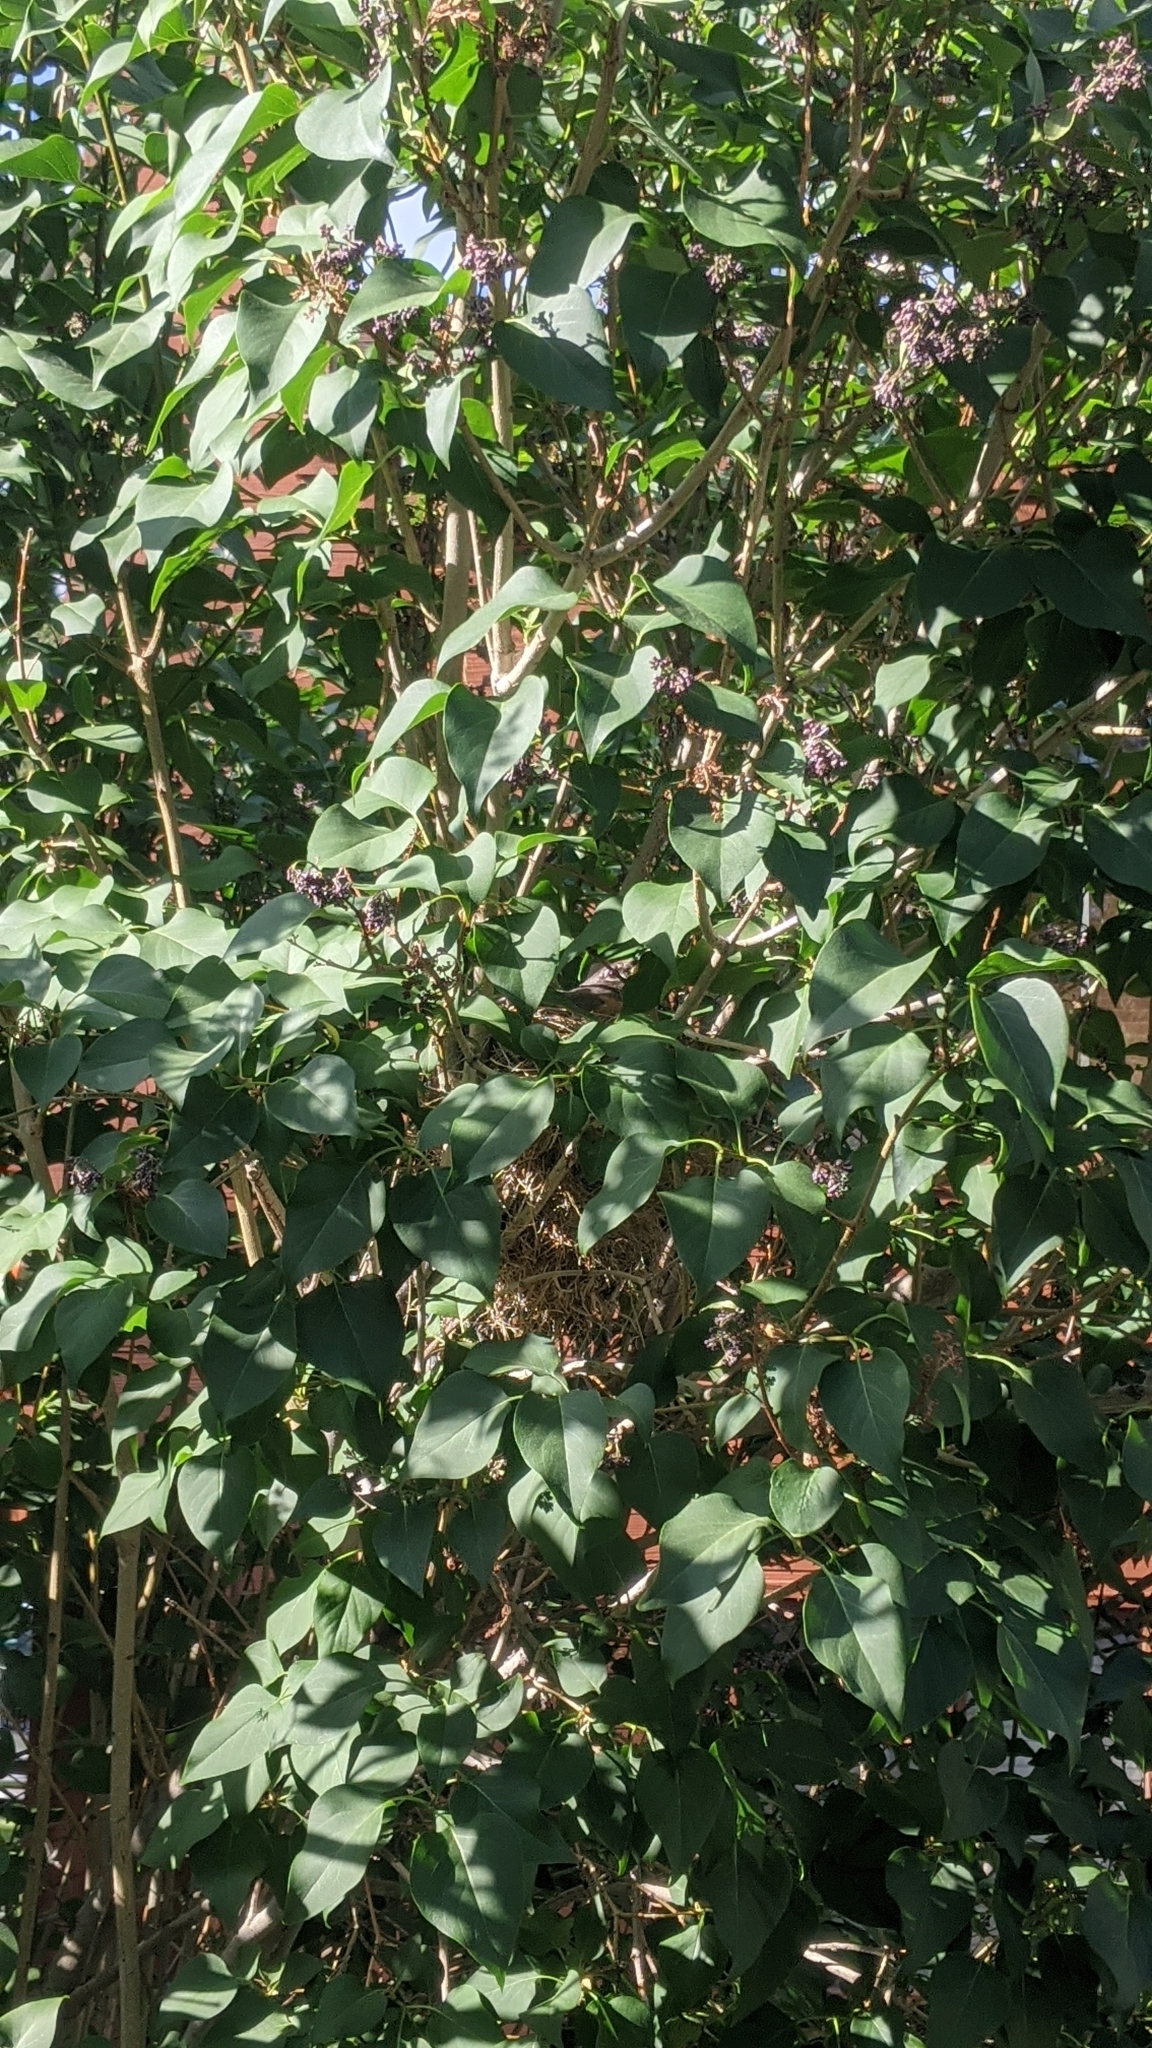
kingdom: Animalia
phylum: Chordata
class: Aves
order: Passeriformes
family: Turdidae
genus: Turdus
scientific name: Turdus migratorius
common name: American robin
